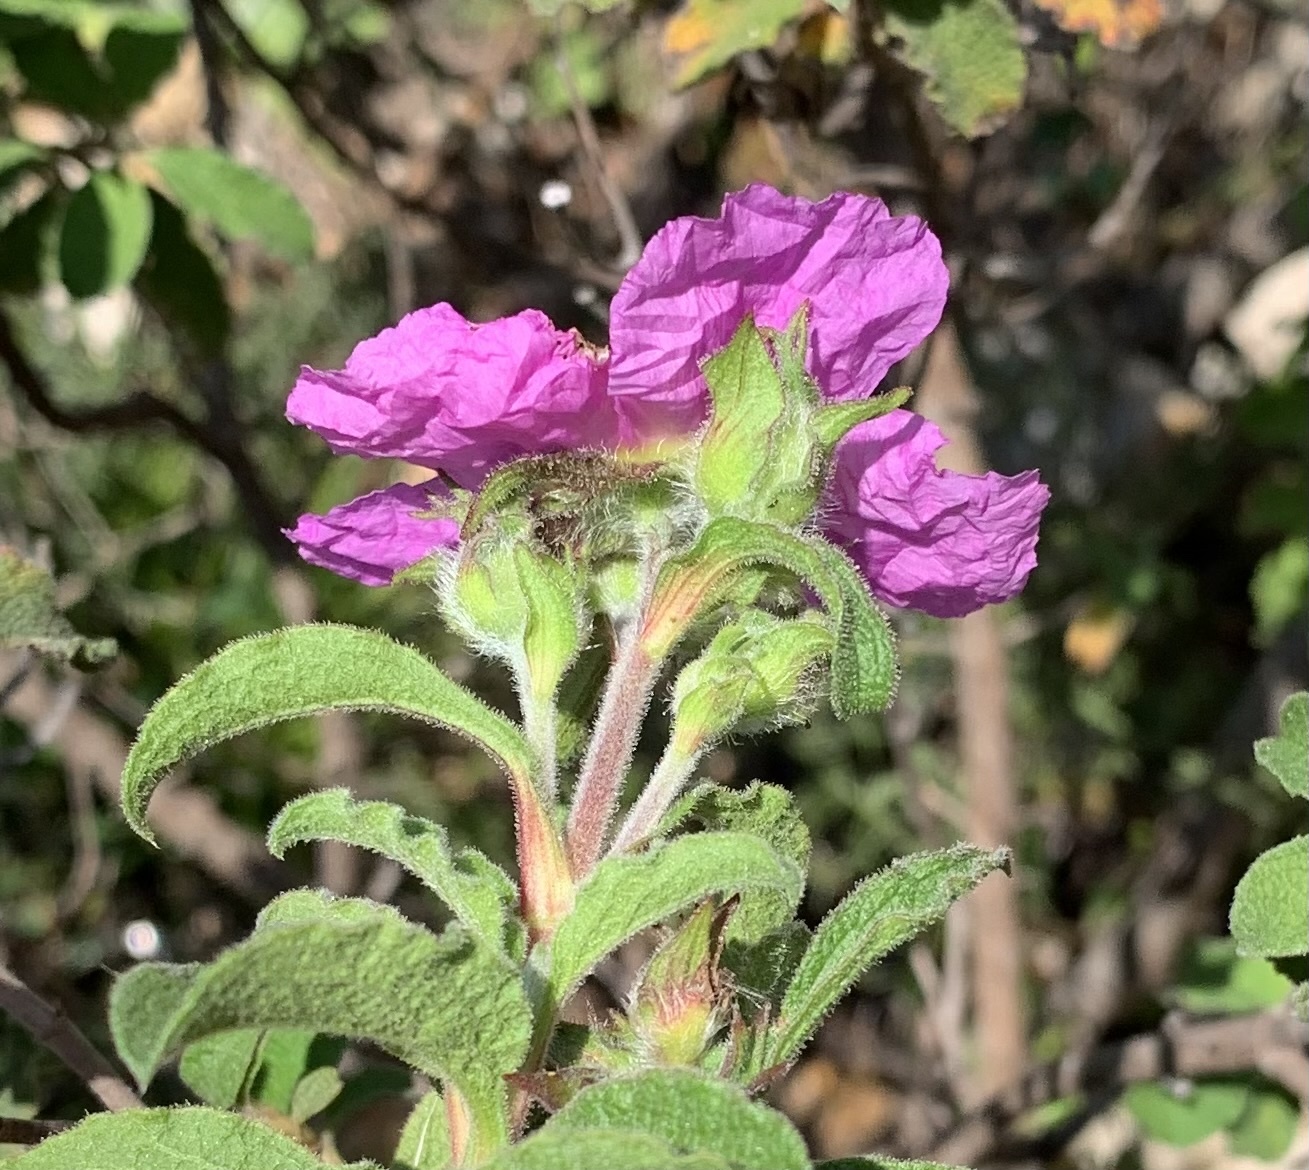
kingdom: Plantae
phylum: Tracheophyta
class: Magnoliopsida
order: Malvales
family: Cistaceae
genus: Cistus
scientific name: Cistus creticus
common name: Cretan rockrose
